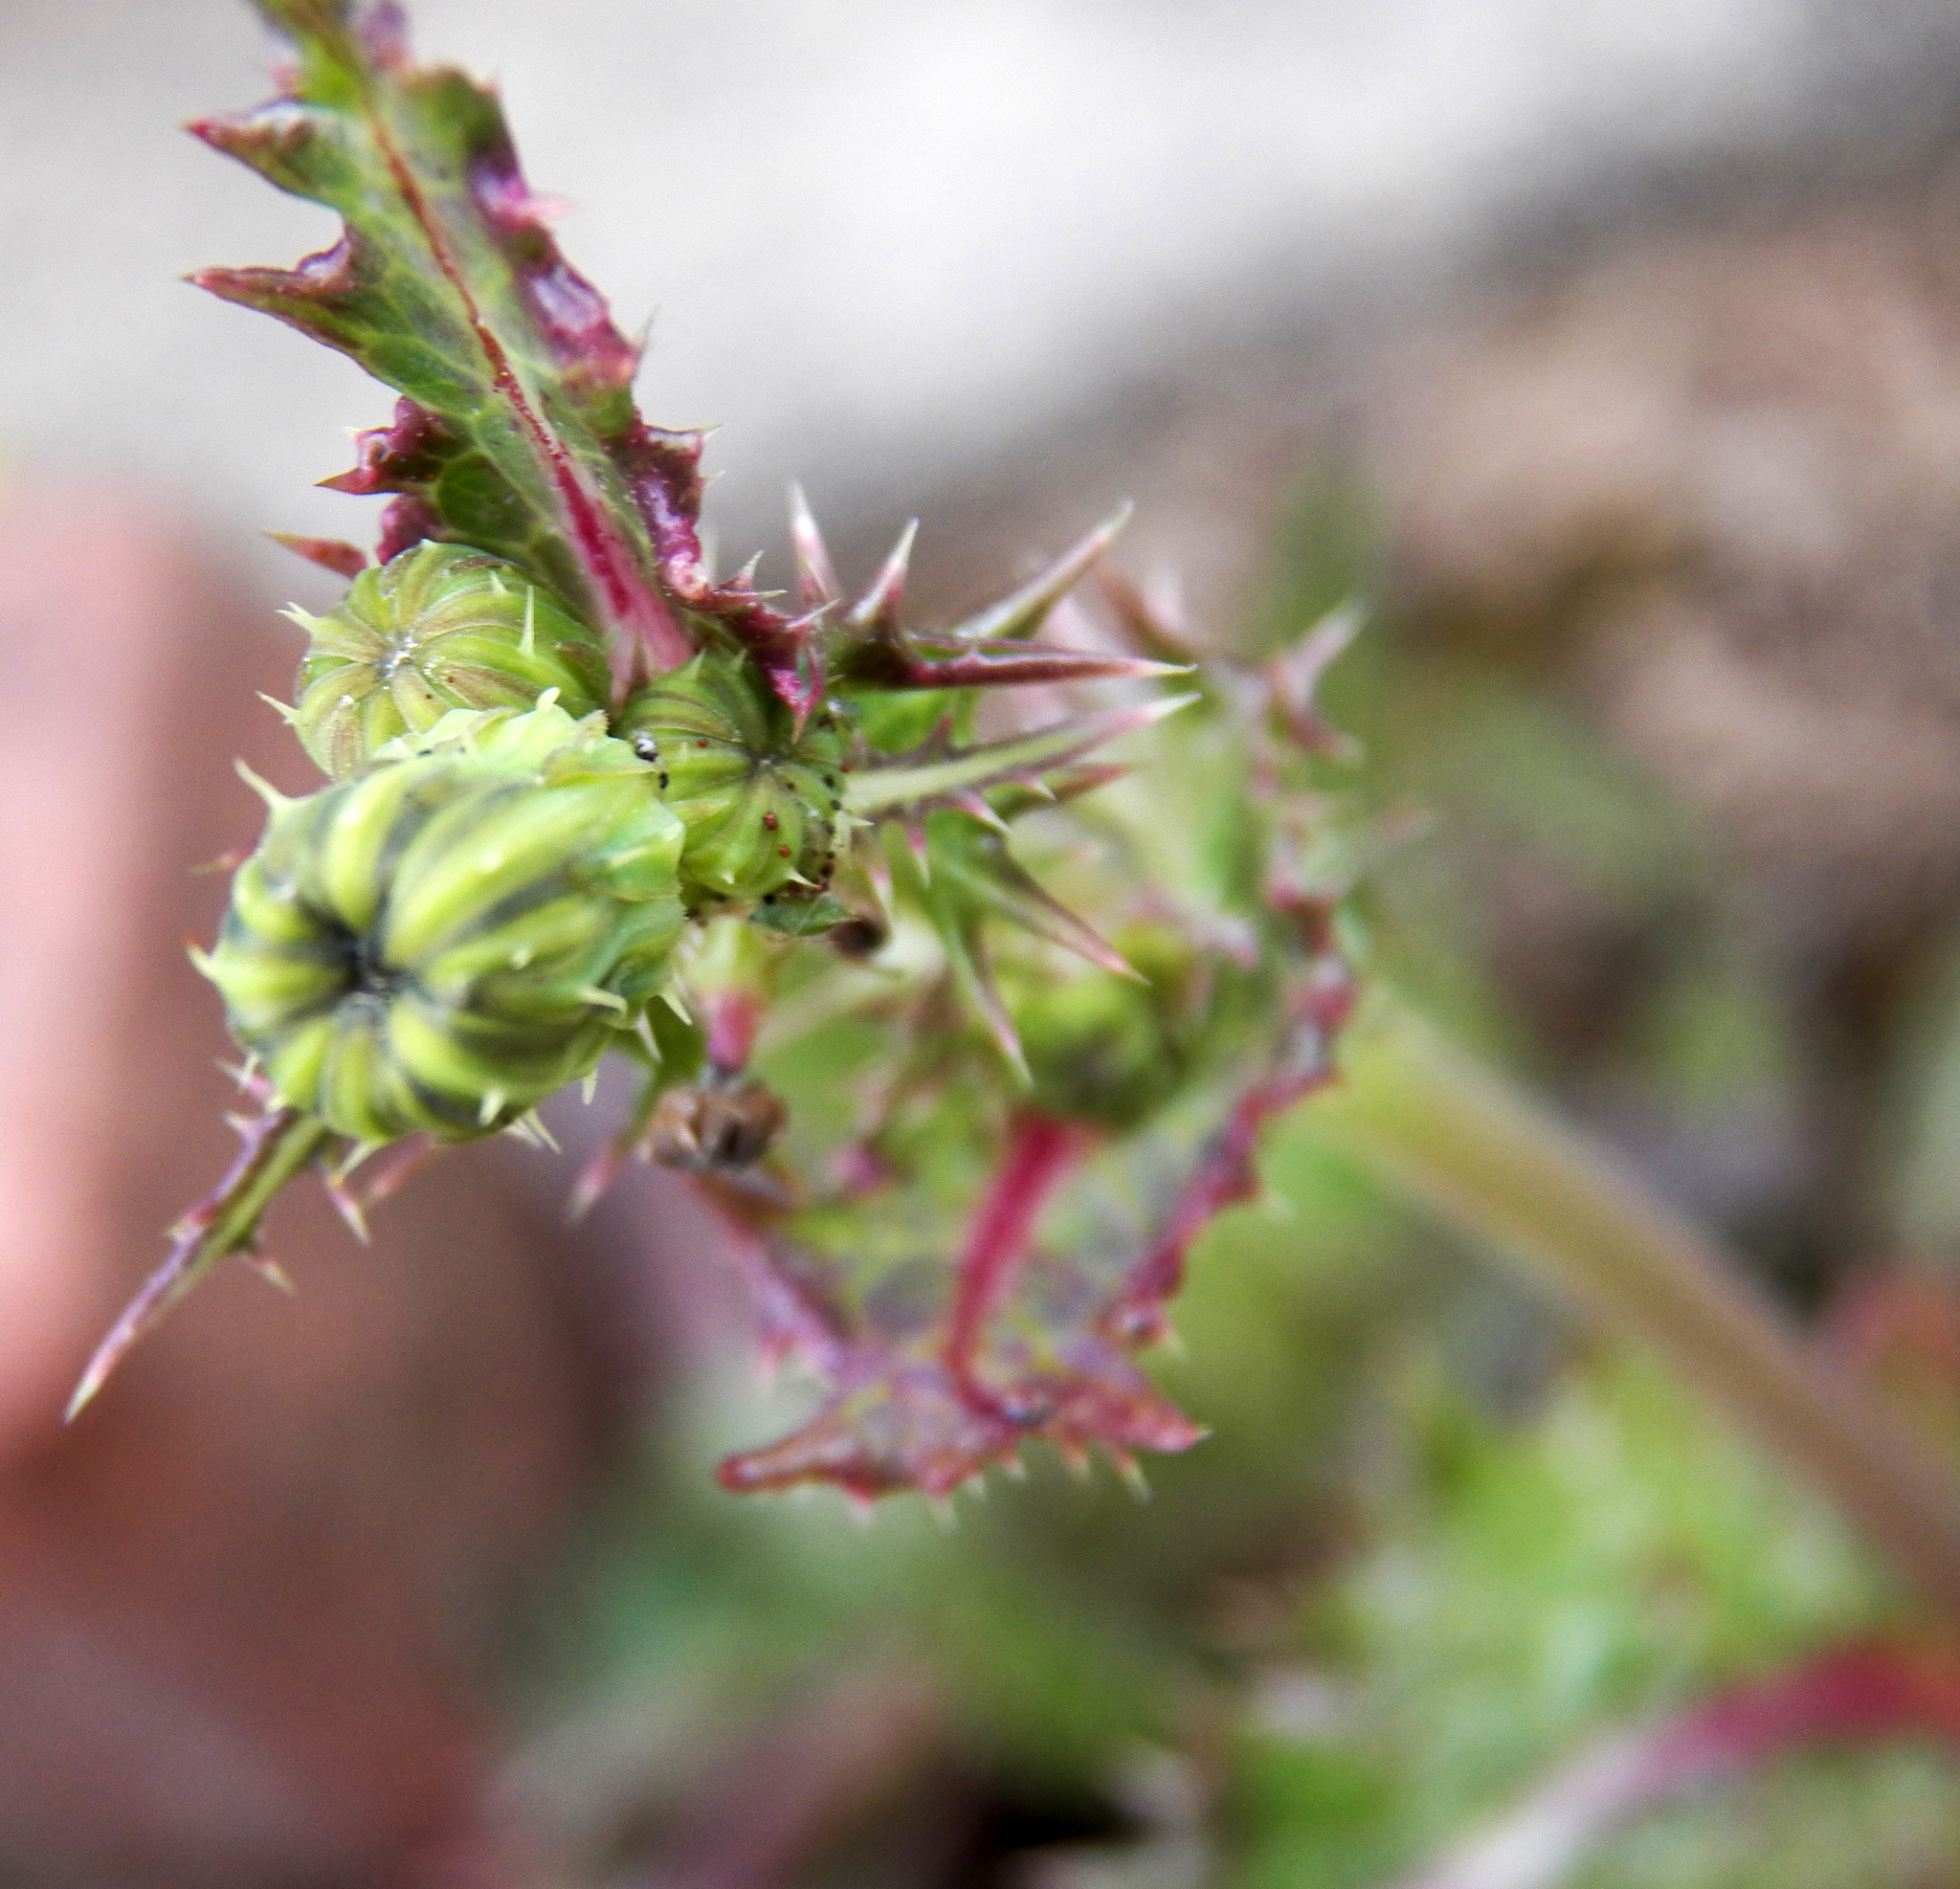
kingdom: Plantae
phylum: Tracheophyta
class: Magnoliopsida
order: Asterales
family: Asteraceae
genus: Sonchus
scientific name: Sonchus asper
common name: Prickly sow-thistle
